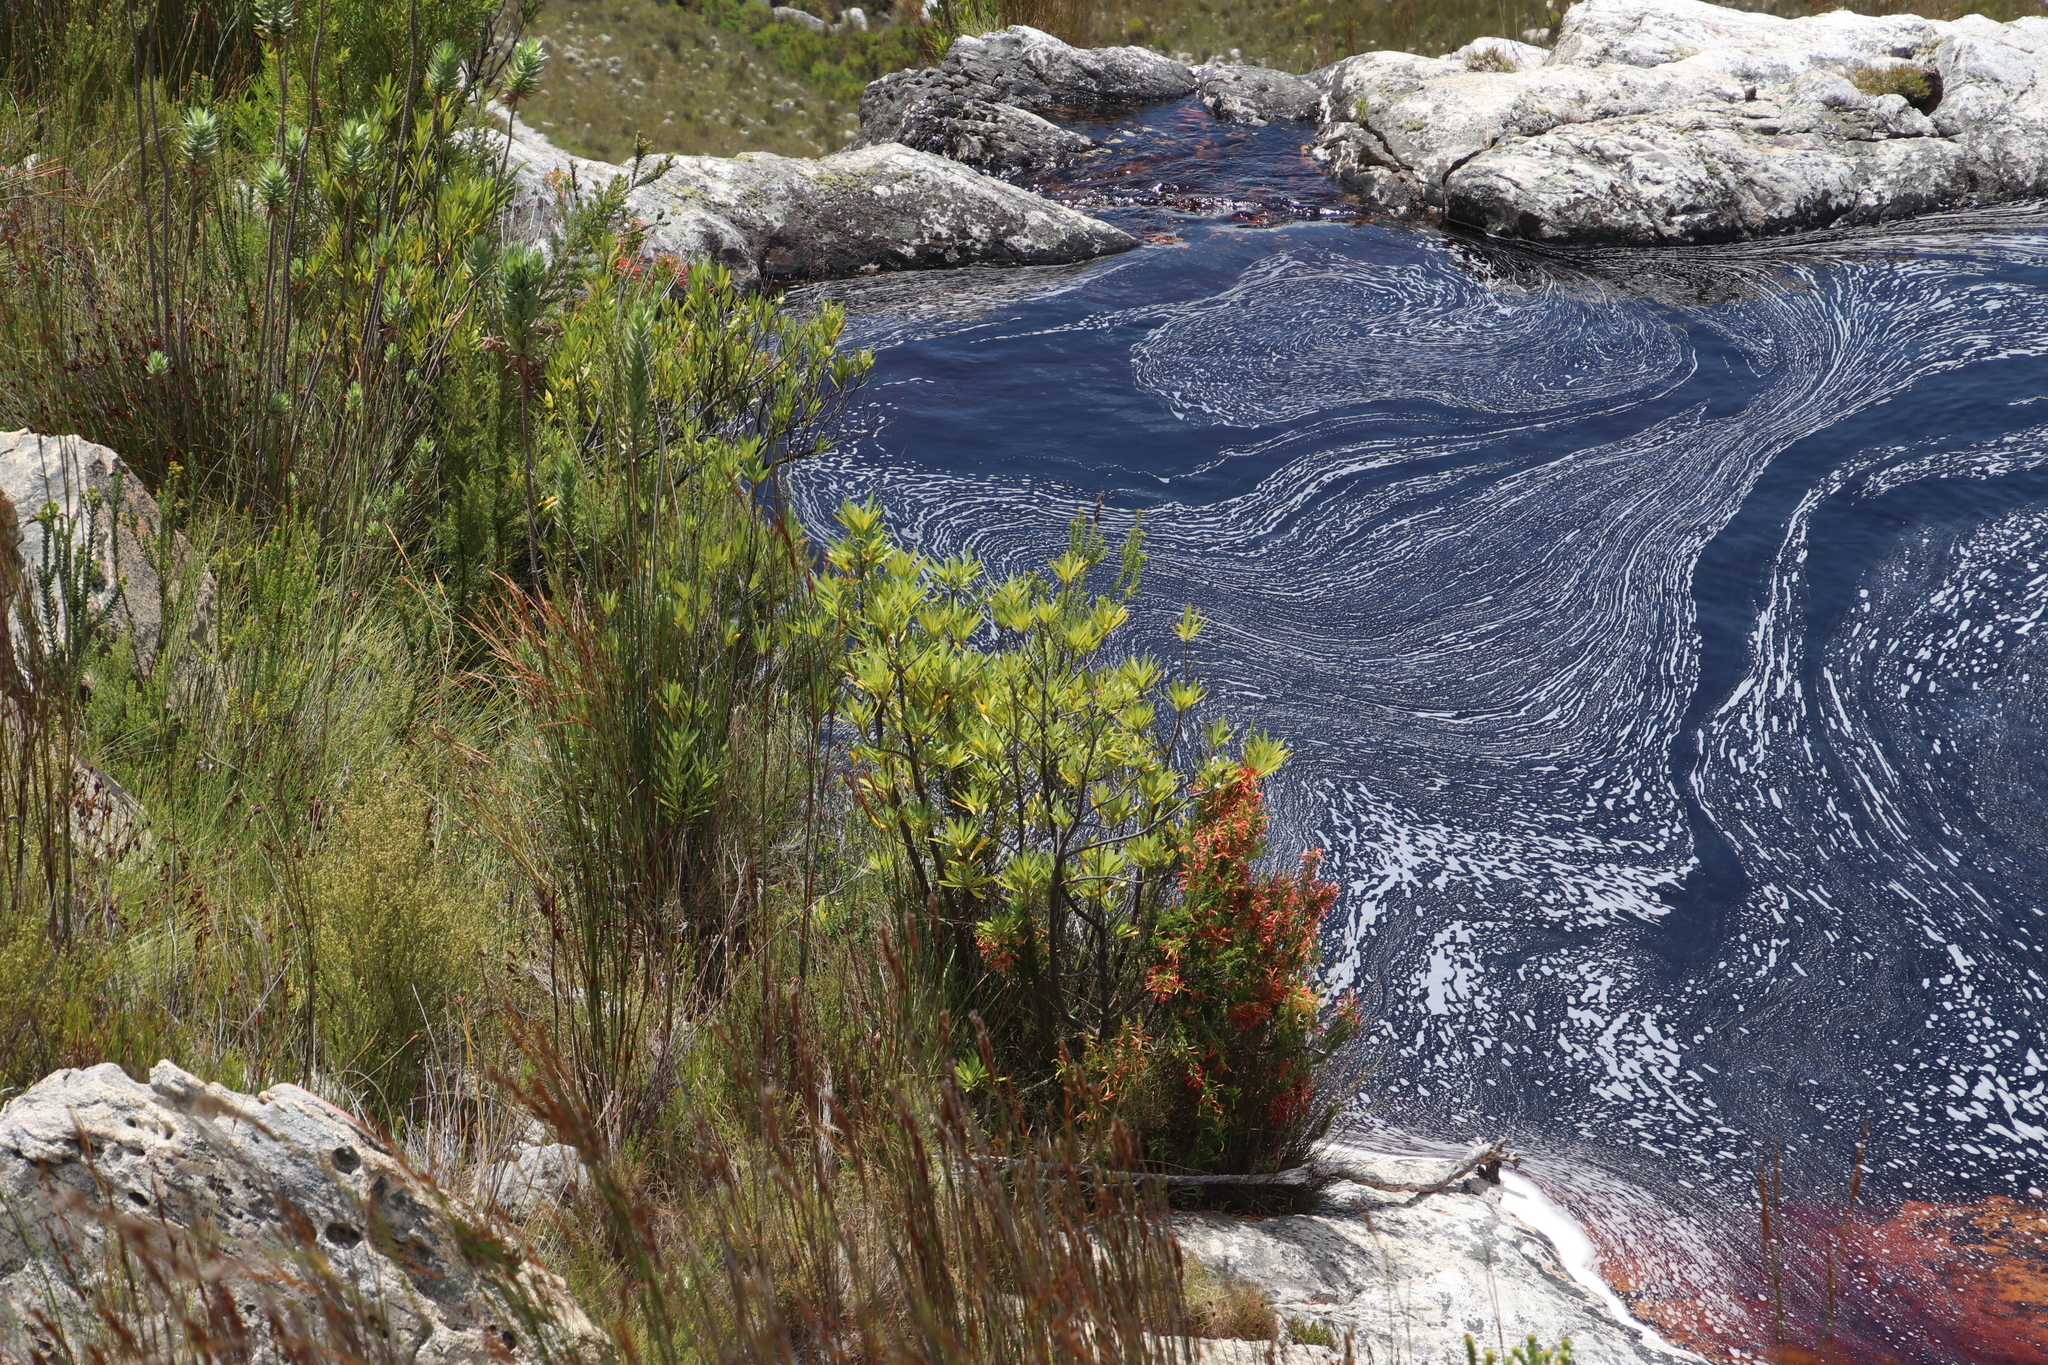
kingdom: Plantae
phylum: Tracheophyta
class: Magnoliopsida
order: Asterales
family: Asteraceae
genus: Brachylaena
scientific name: Brachylaena neriifolia
